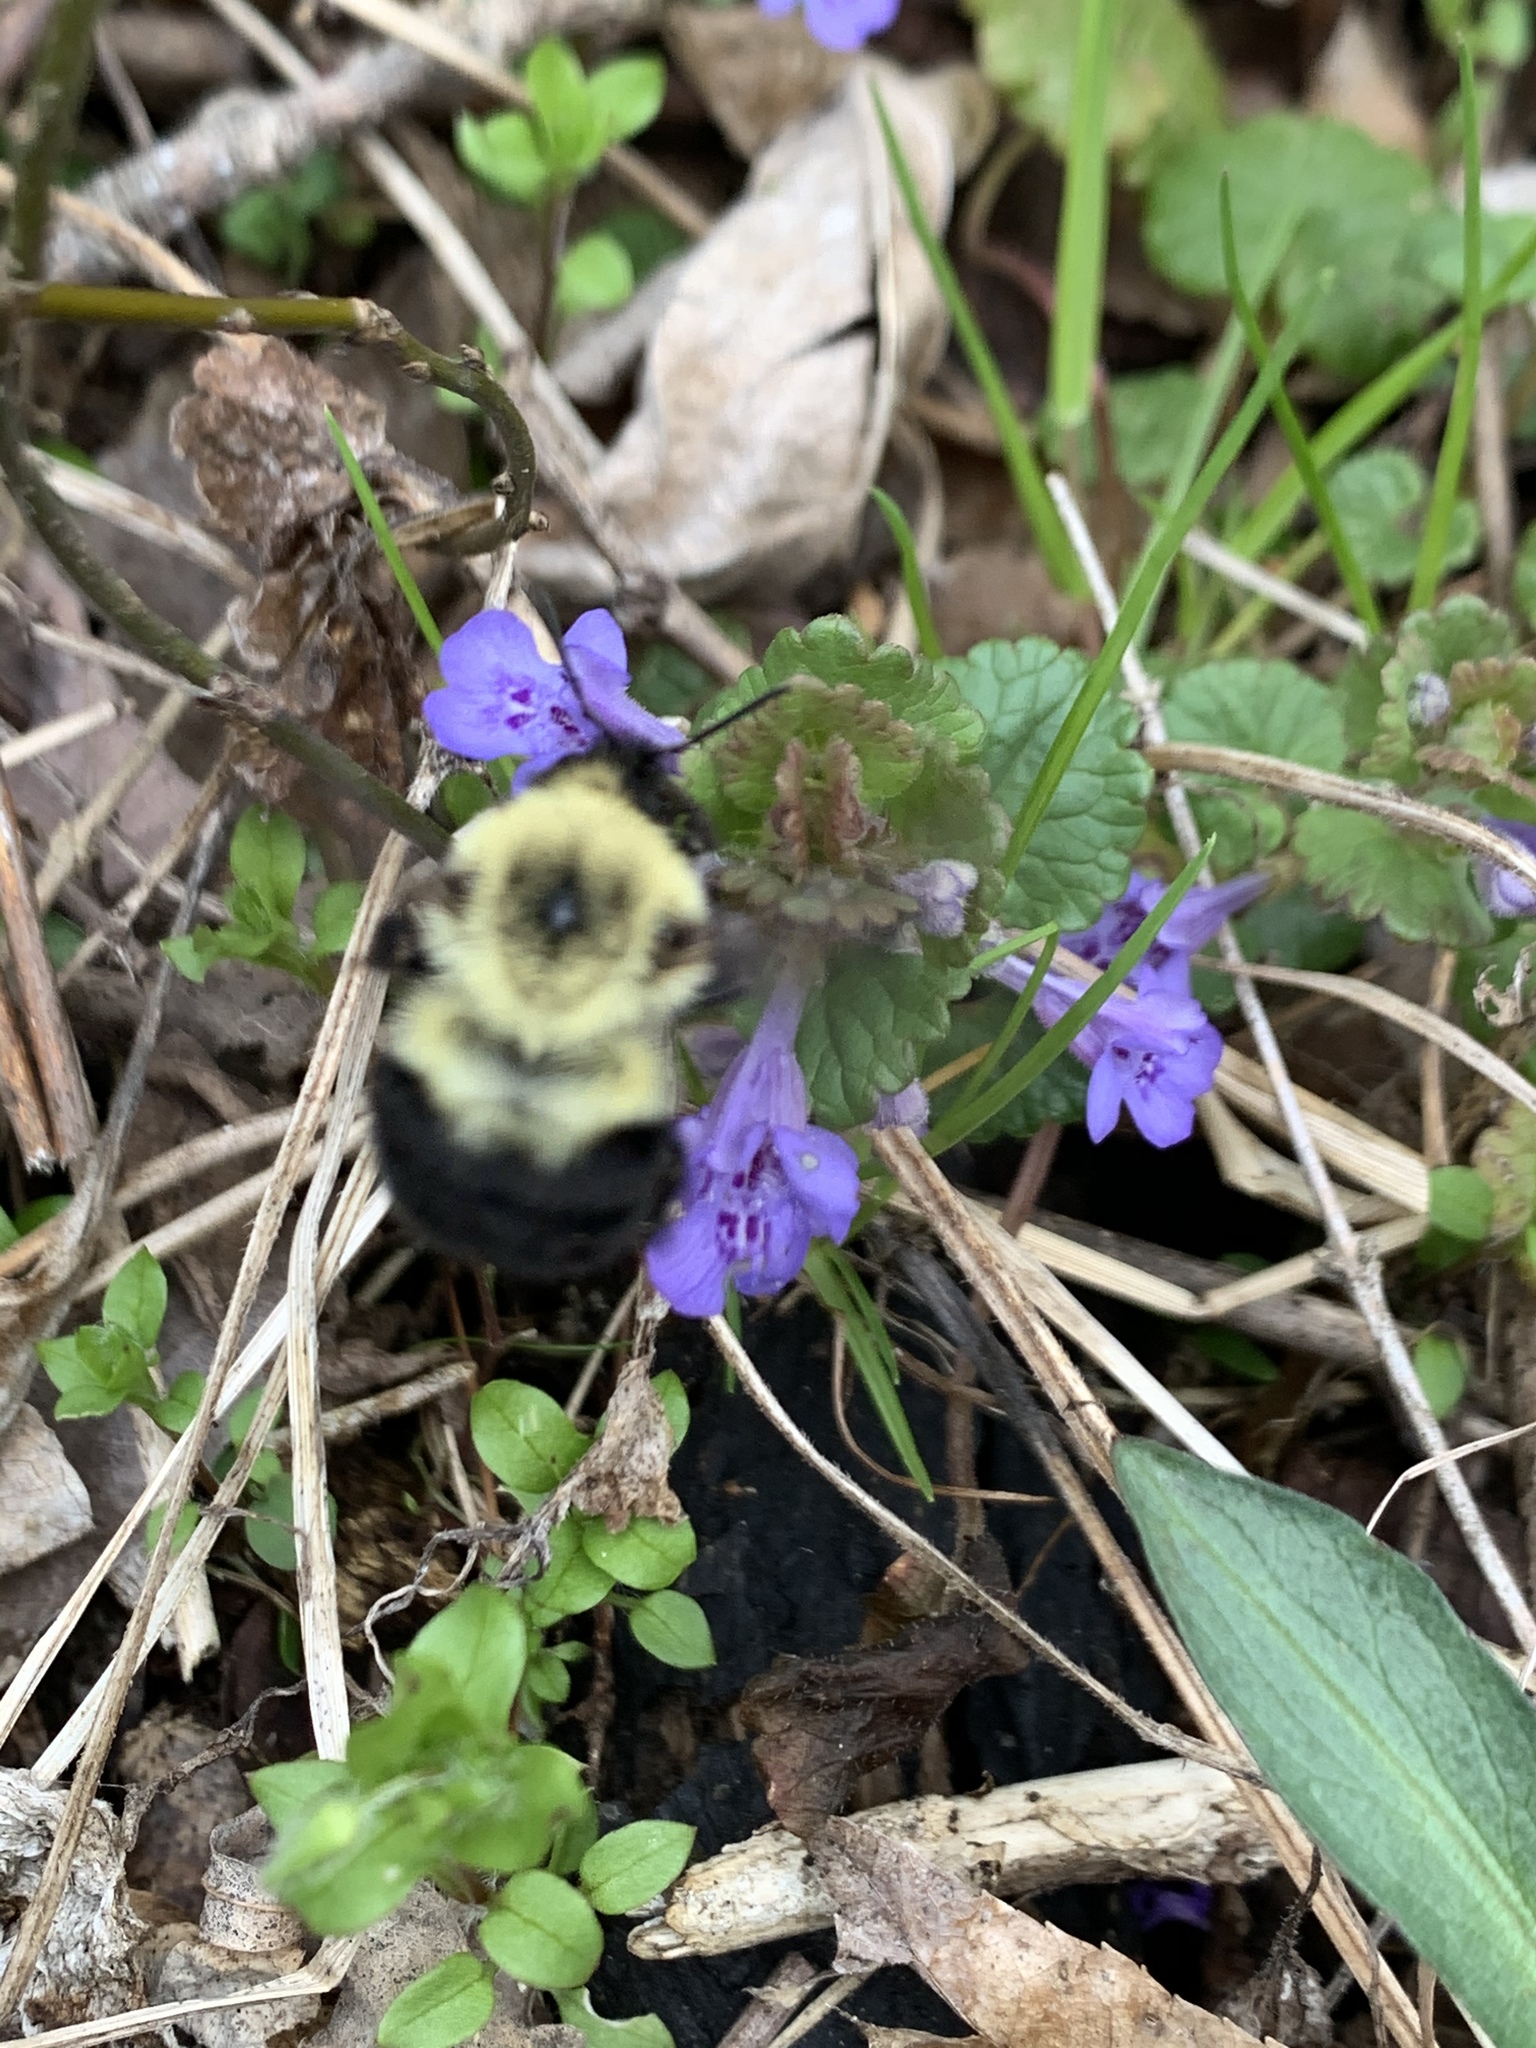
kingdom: Animalia
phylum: Arthropoda
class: Insecta
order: Hymenoptera
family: Apidae
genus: Bombus
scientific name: Bombus bimaculatus
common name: Two-spotted bumble bee
